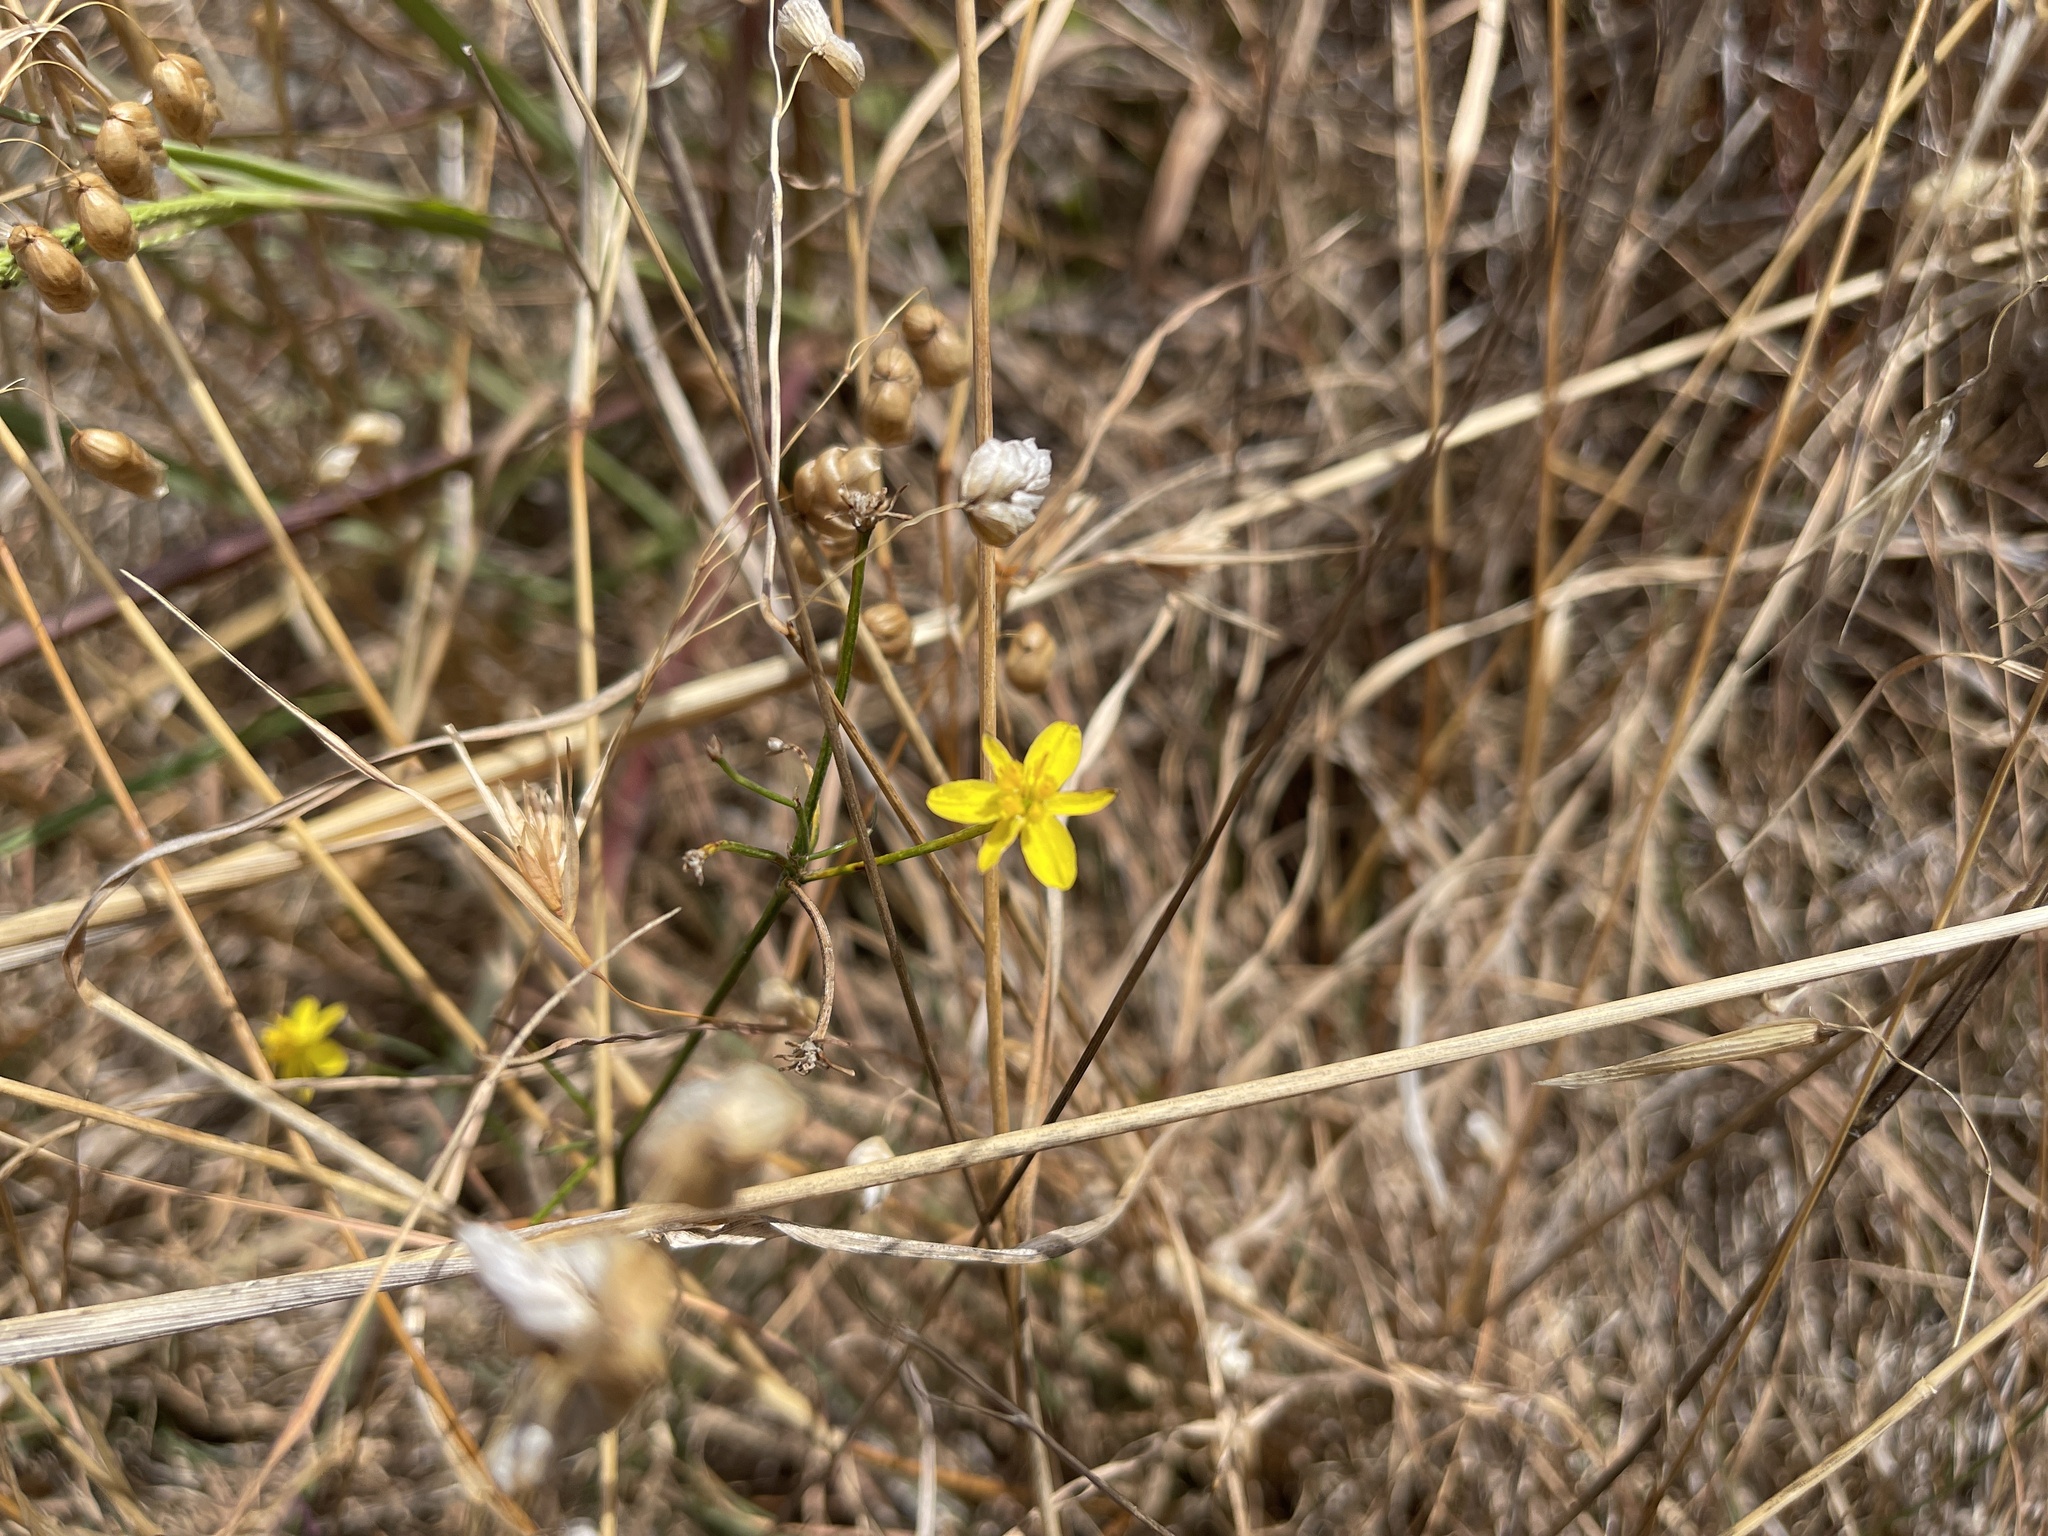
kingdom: Plantae
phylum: Tracheophyta
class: Liliopsida
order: Asparagales
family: Asphodelaceae
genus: Tricoryne
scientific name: Tricoryne elatior
